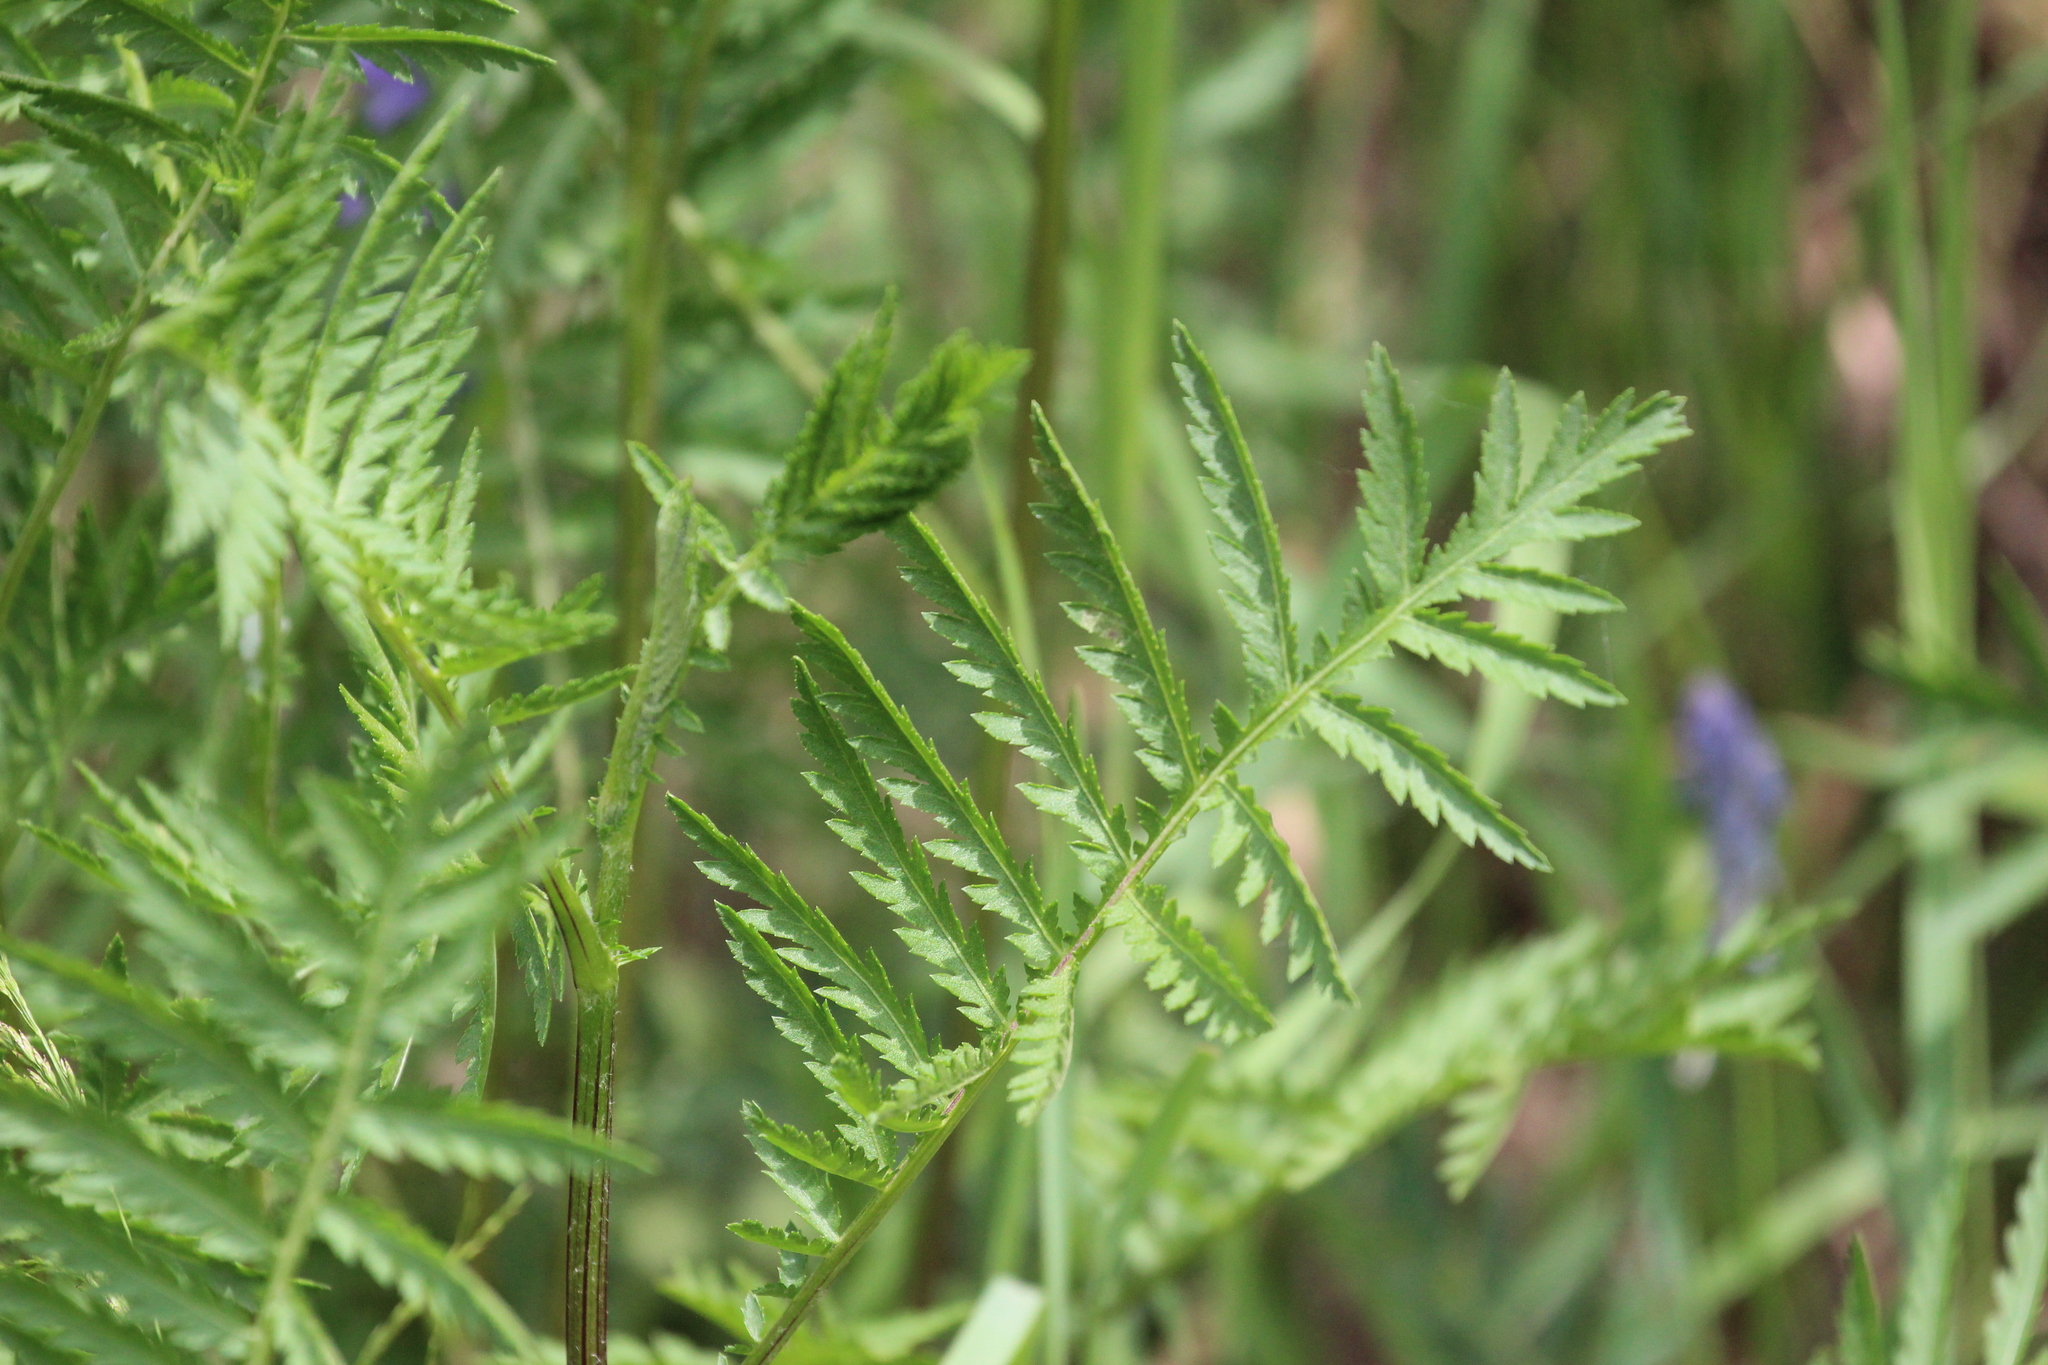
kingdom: Plantae
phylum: Tracheophyta
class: Magnoliopsida
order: Asterales
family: Asteraceae
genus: Tanacetum
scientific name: Tanacetum vulgare
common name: Common tansy
